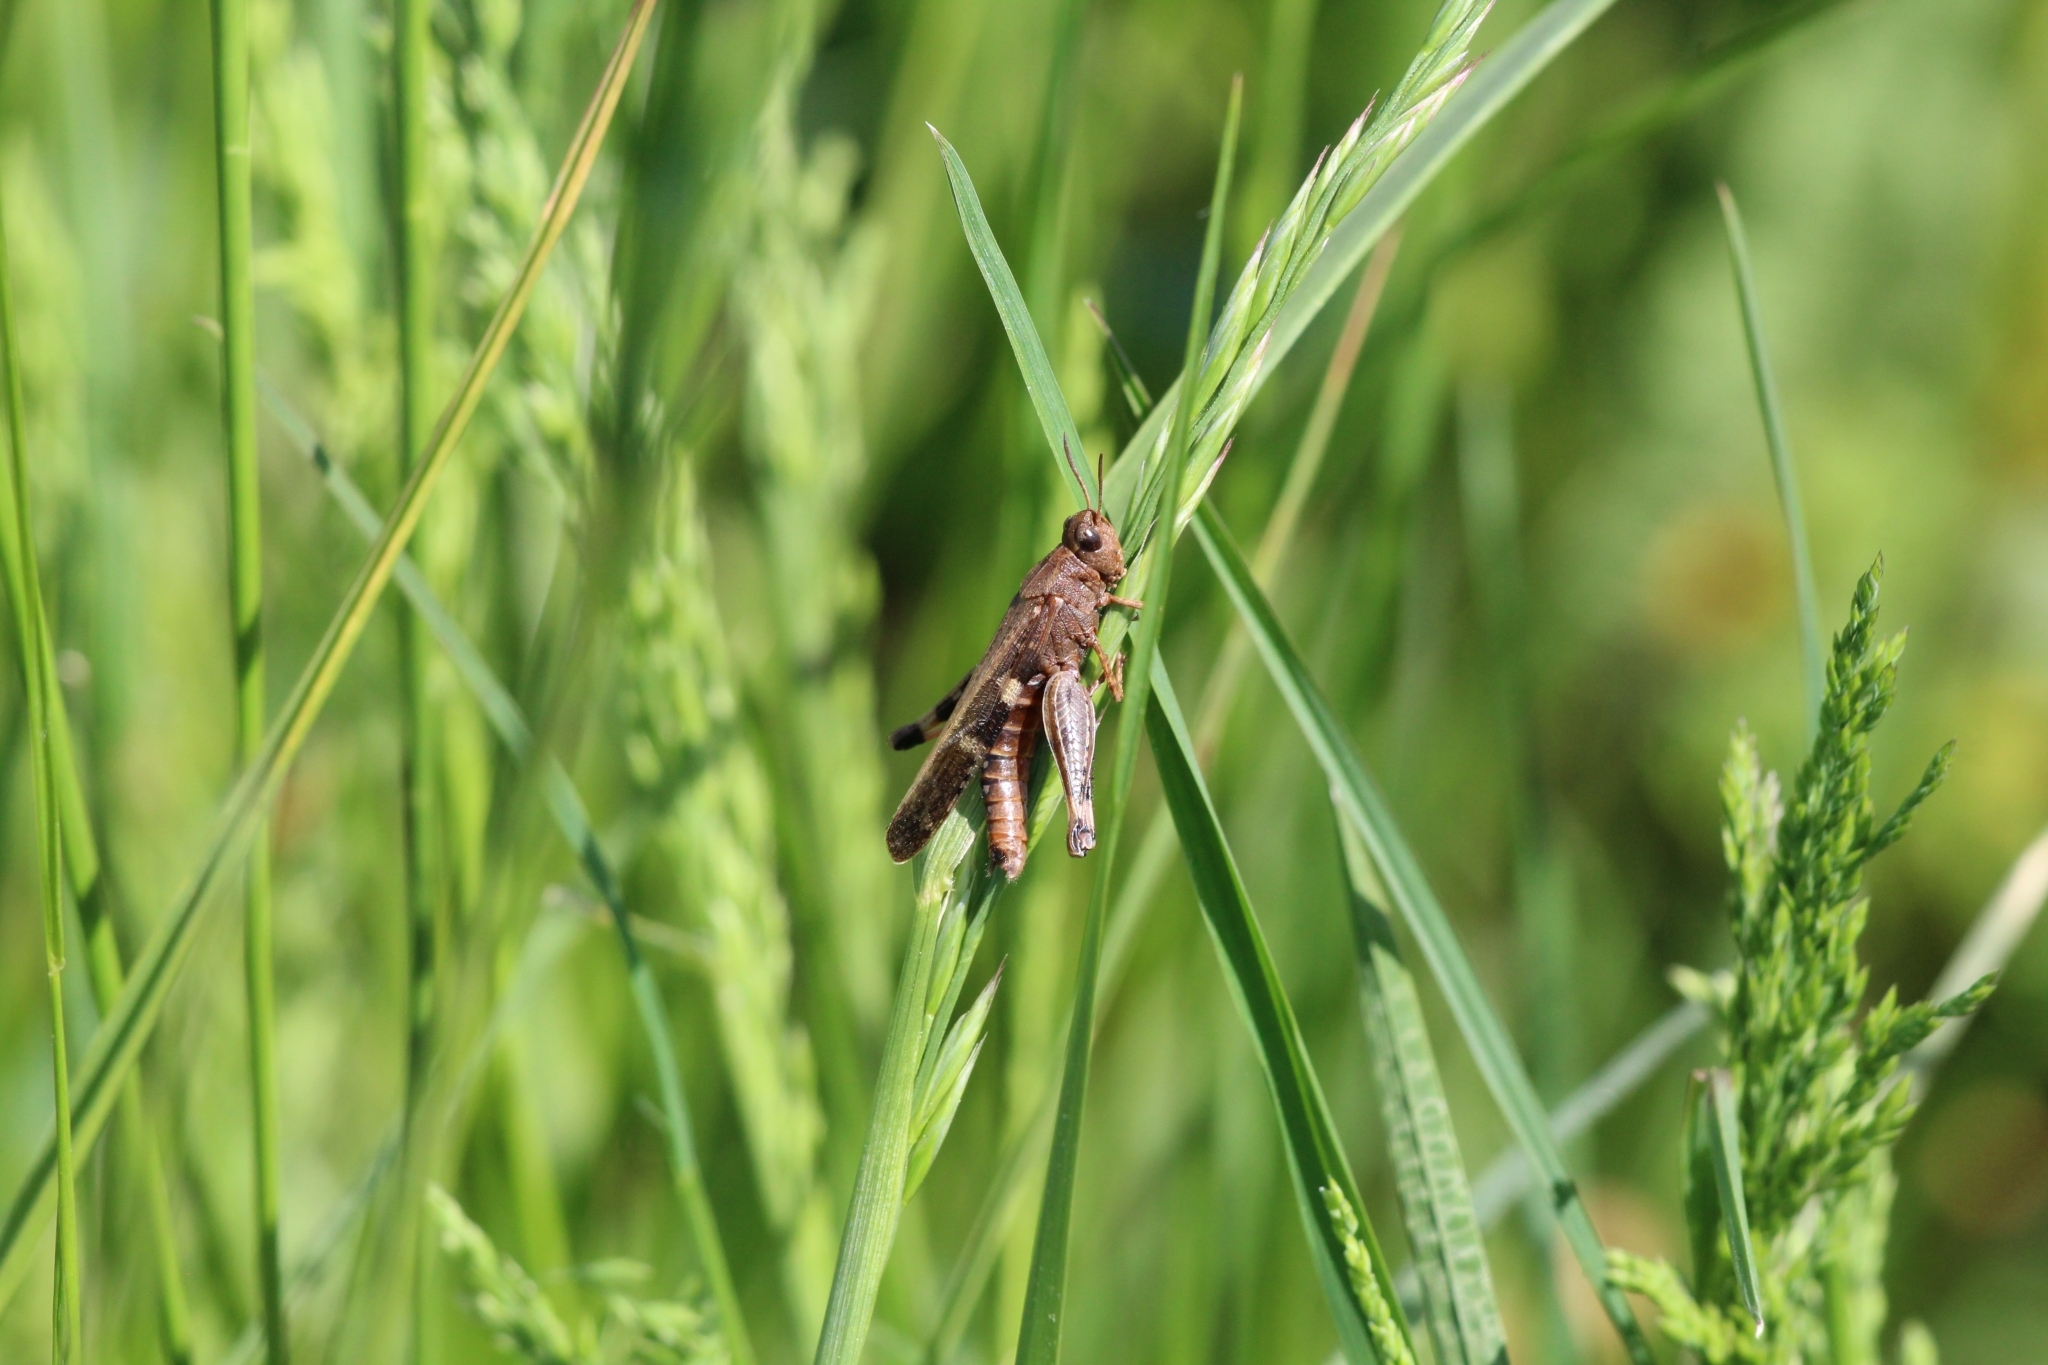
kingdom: Animalia
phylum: Arthropoda
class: Insecta
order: Orthoptera
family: Acrididae
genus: Aiolopus
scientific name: Aiolopus strepens
